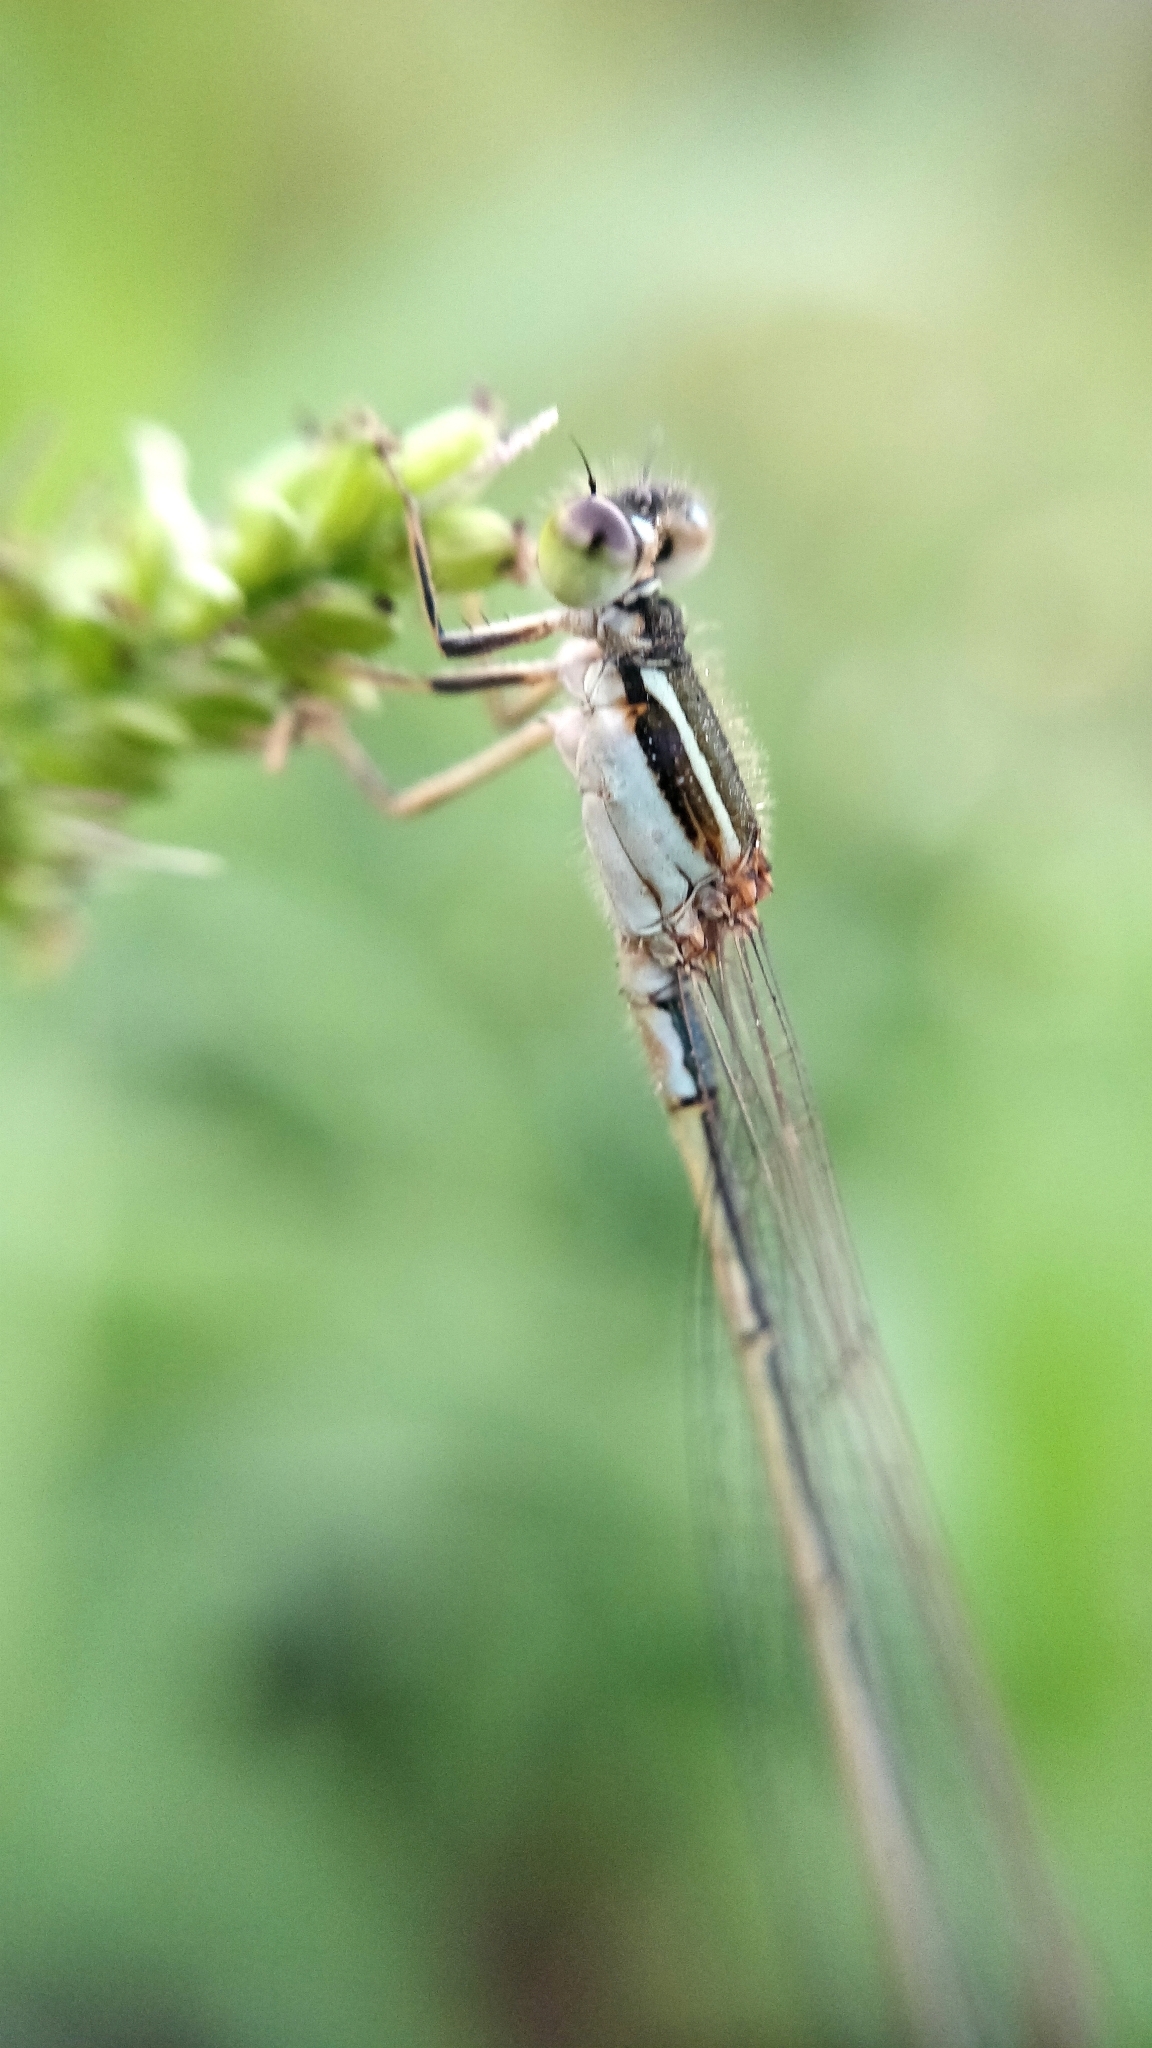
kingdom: Animalia
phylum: Arthropoda
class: Insecta
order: Odonata
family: Coenagrionidae
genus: Ischnura
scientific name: Ischnura saharensis
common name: Sahara bluetail
